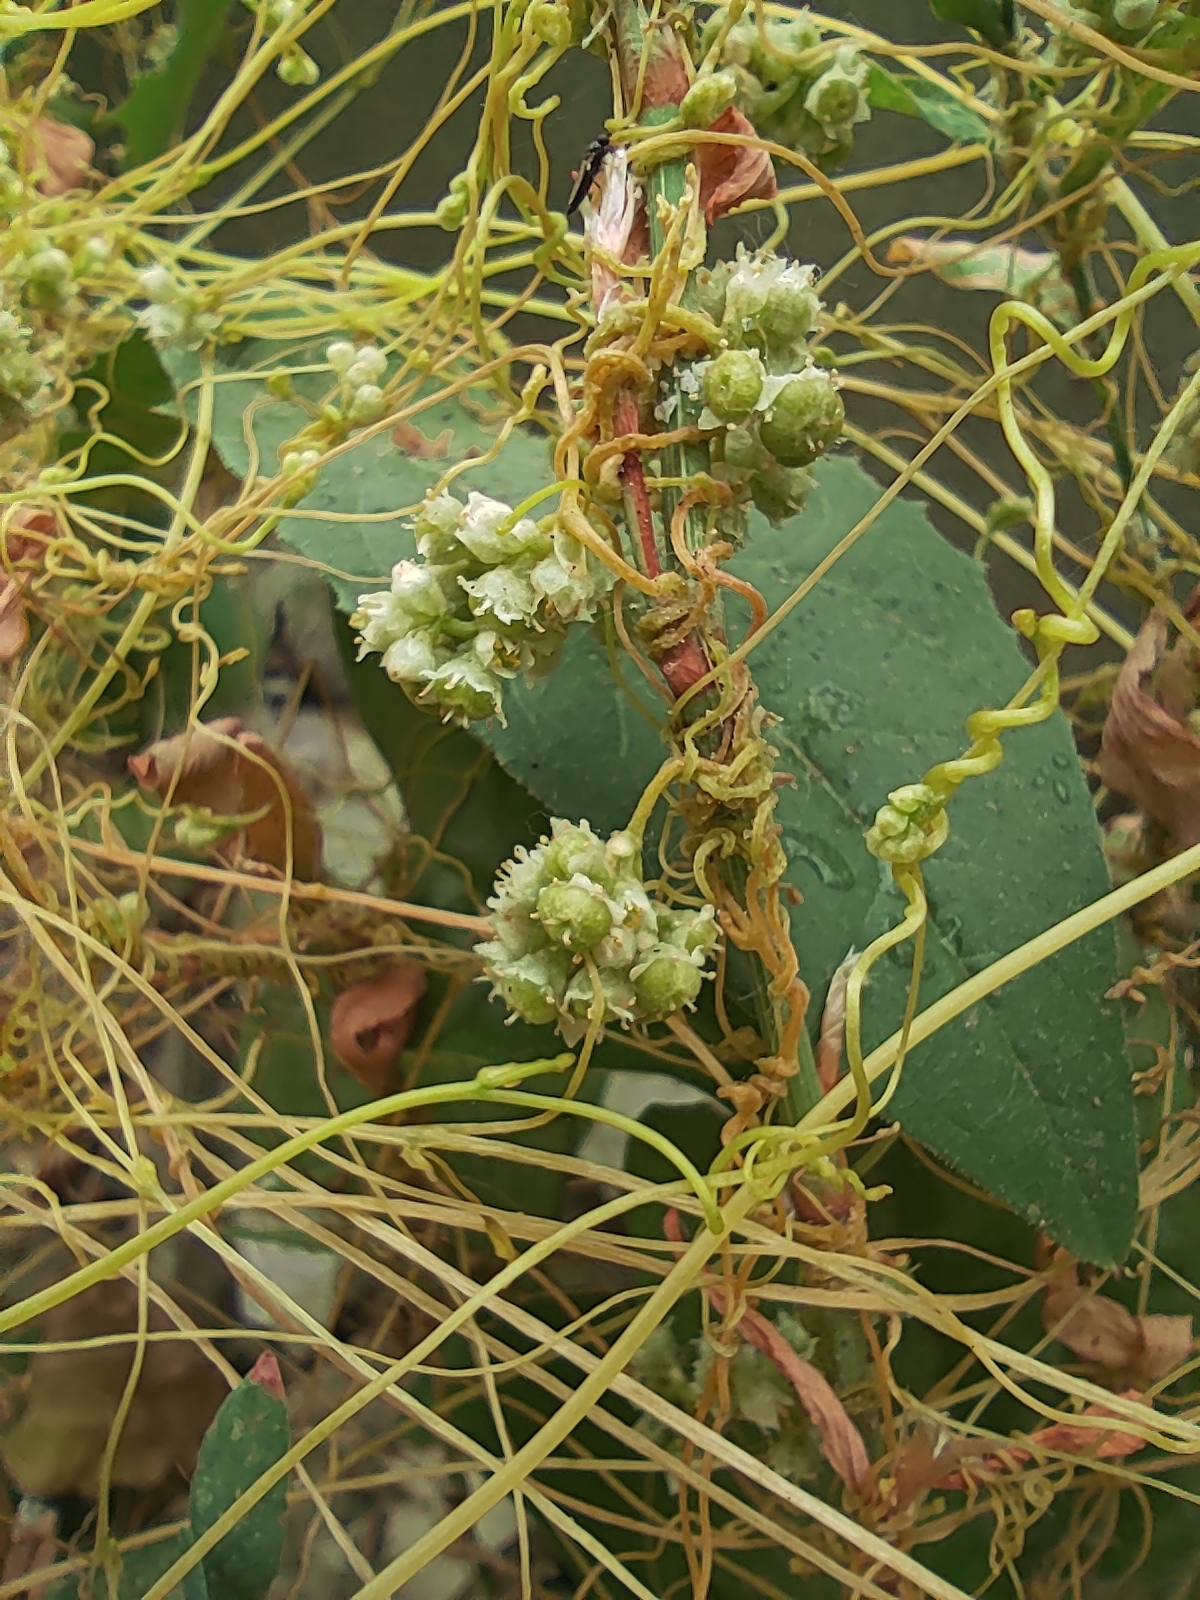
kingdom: Plantae
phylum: Tracheophyta
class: Magnoliopsida
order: Solanales
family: Convolvulaceae
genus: Cuscuta
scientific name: Cuscuta campestris
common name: Yellow dodder
